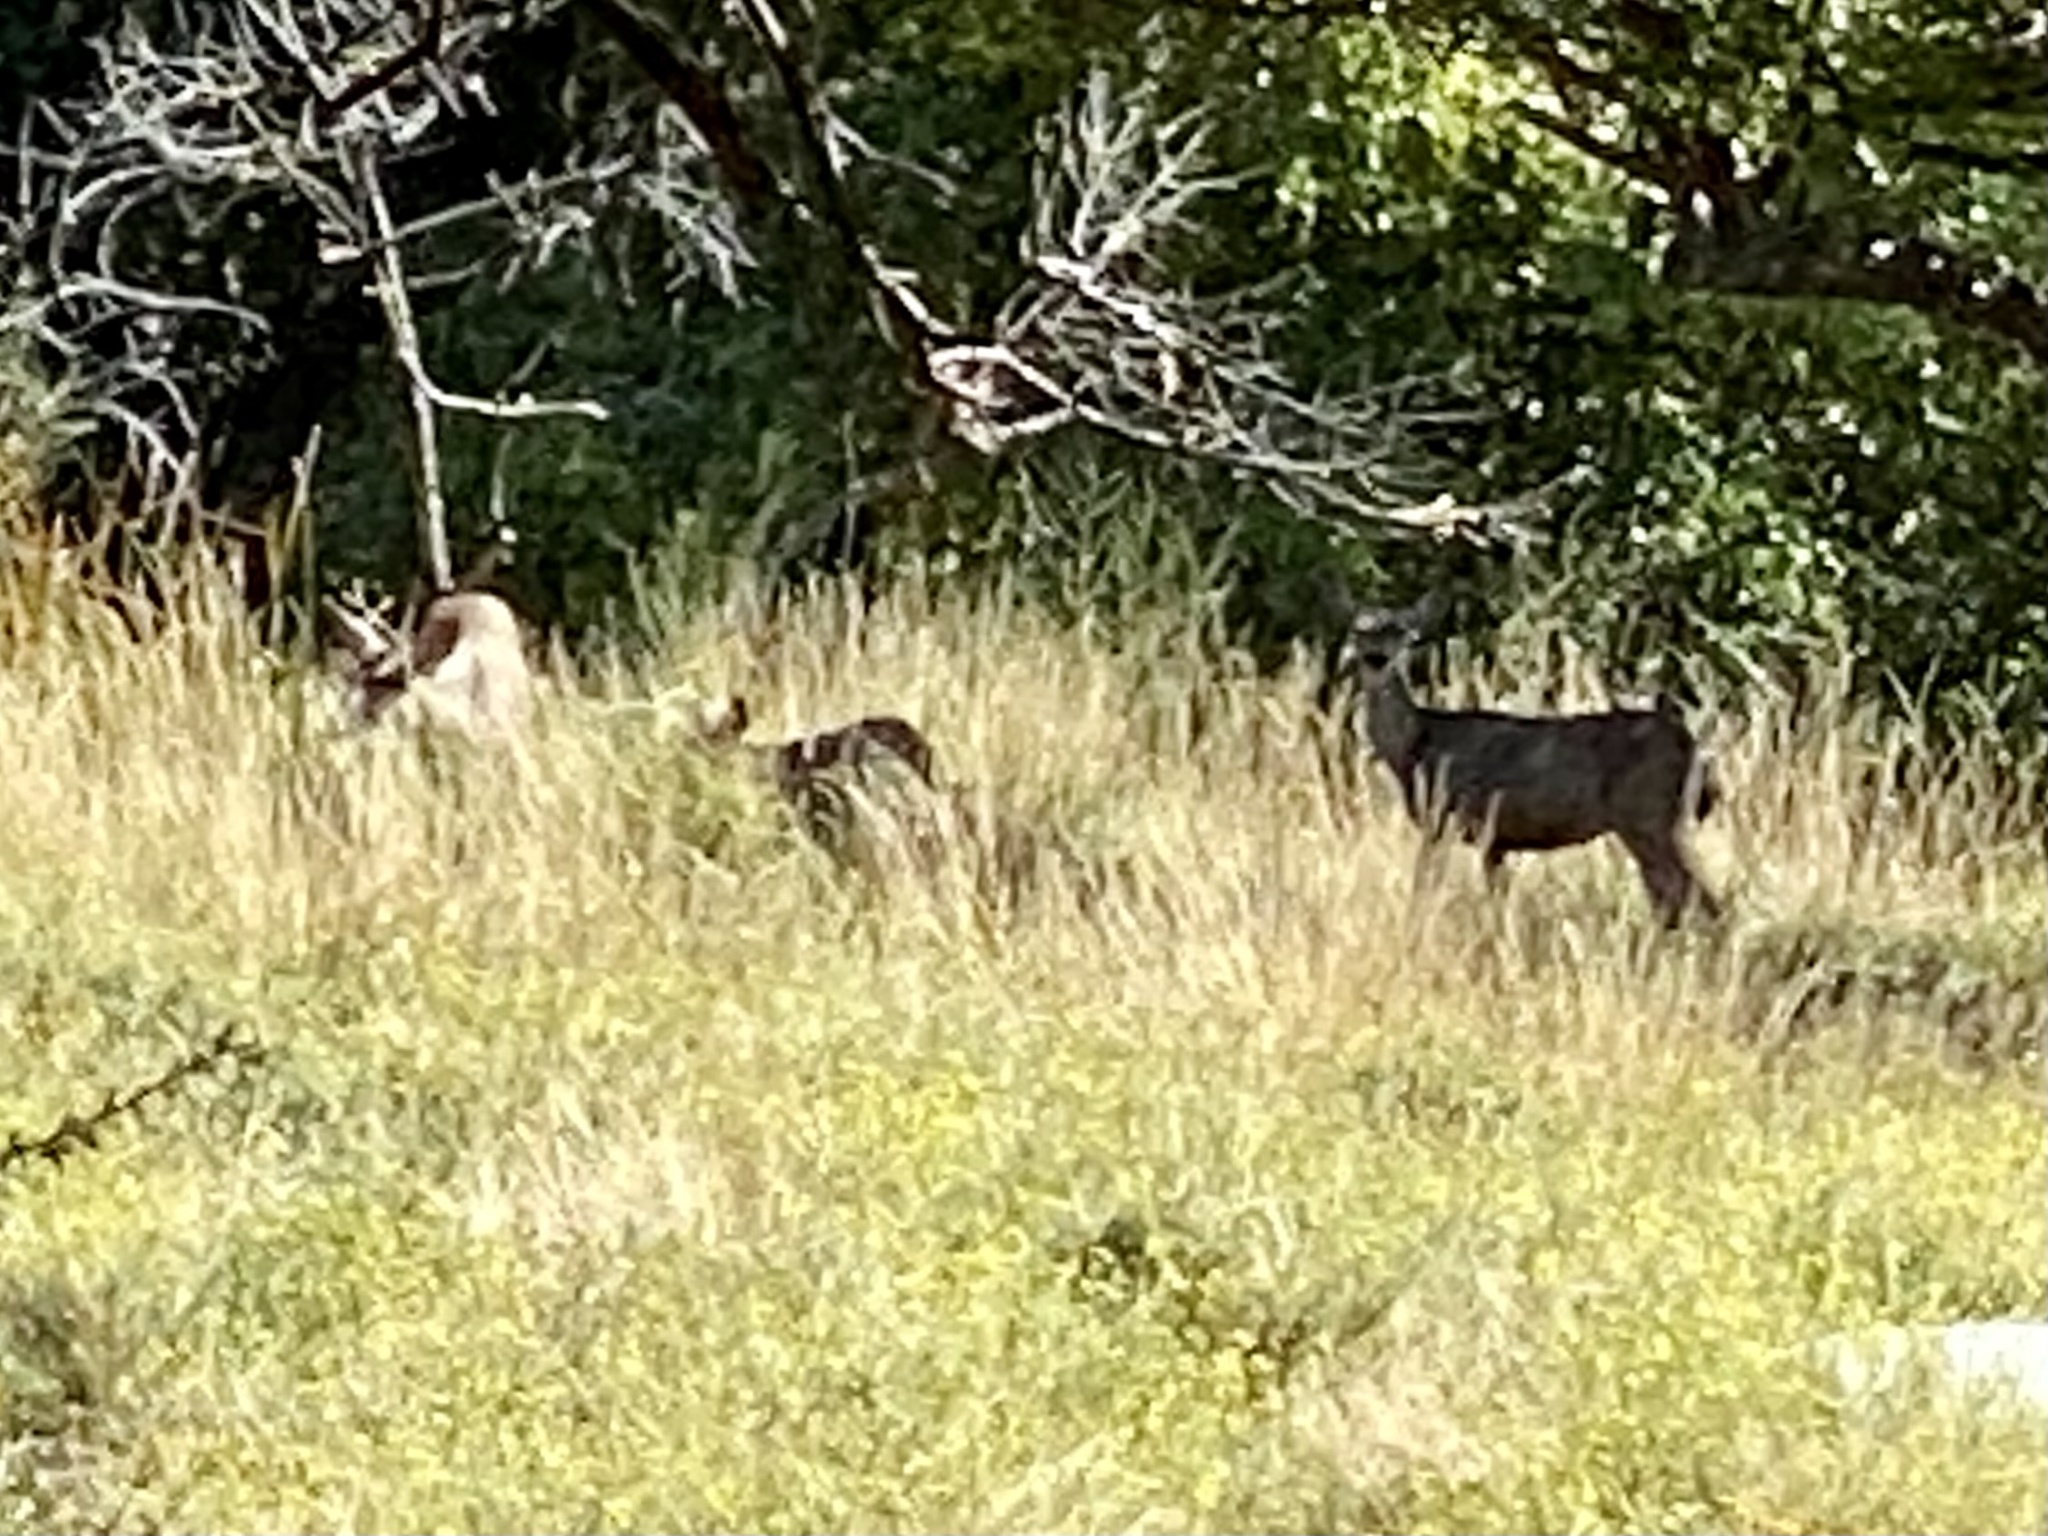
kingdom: Animalia
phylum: Chordata
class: Mammalia
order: Artiodactyla
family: Cervidae
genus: Odocoileus
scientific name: Odocoileus hemionus
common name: Mule deer
